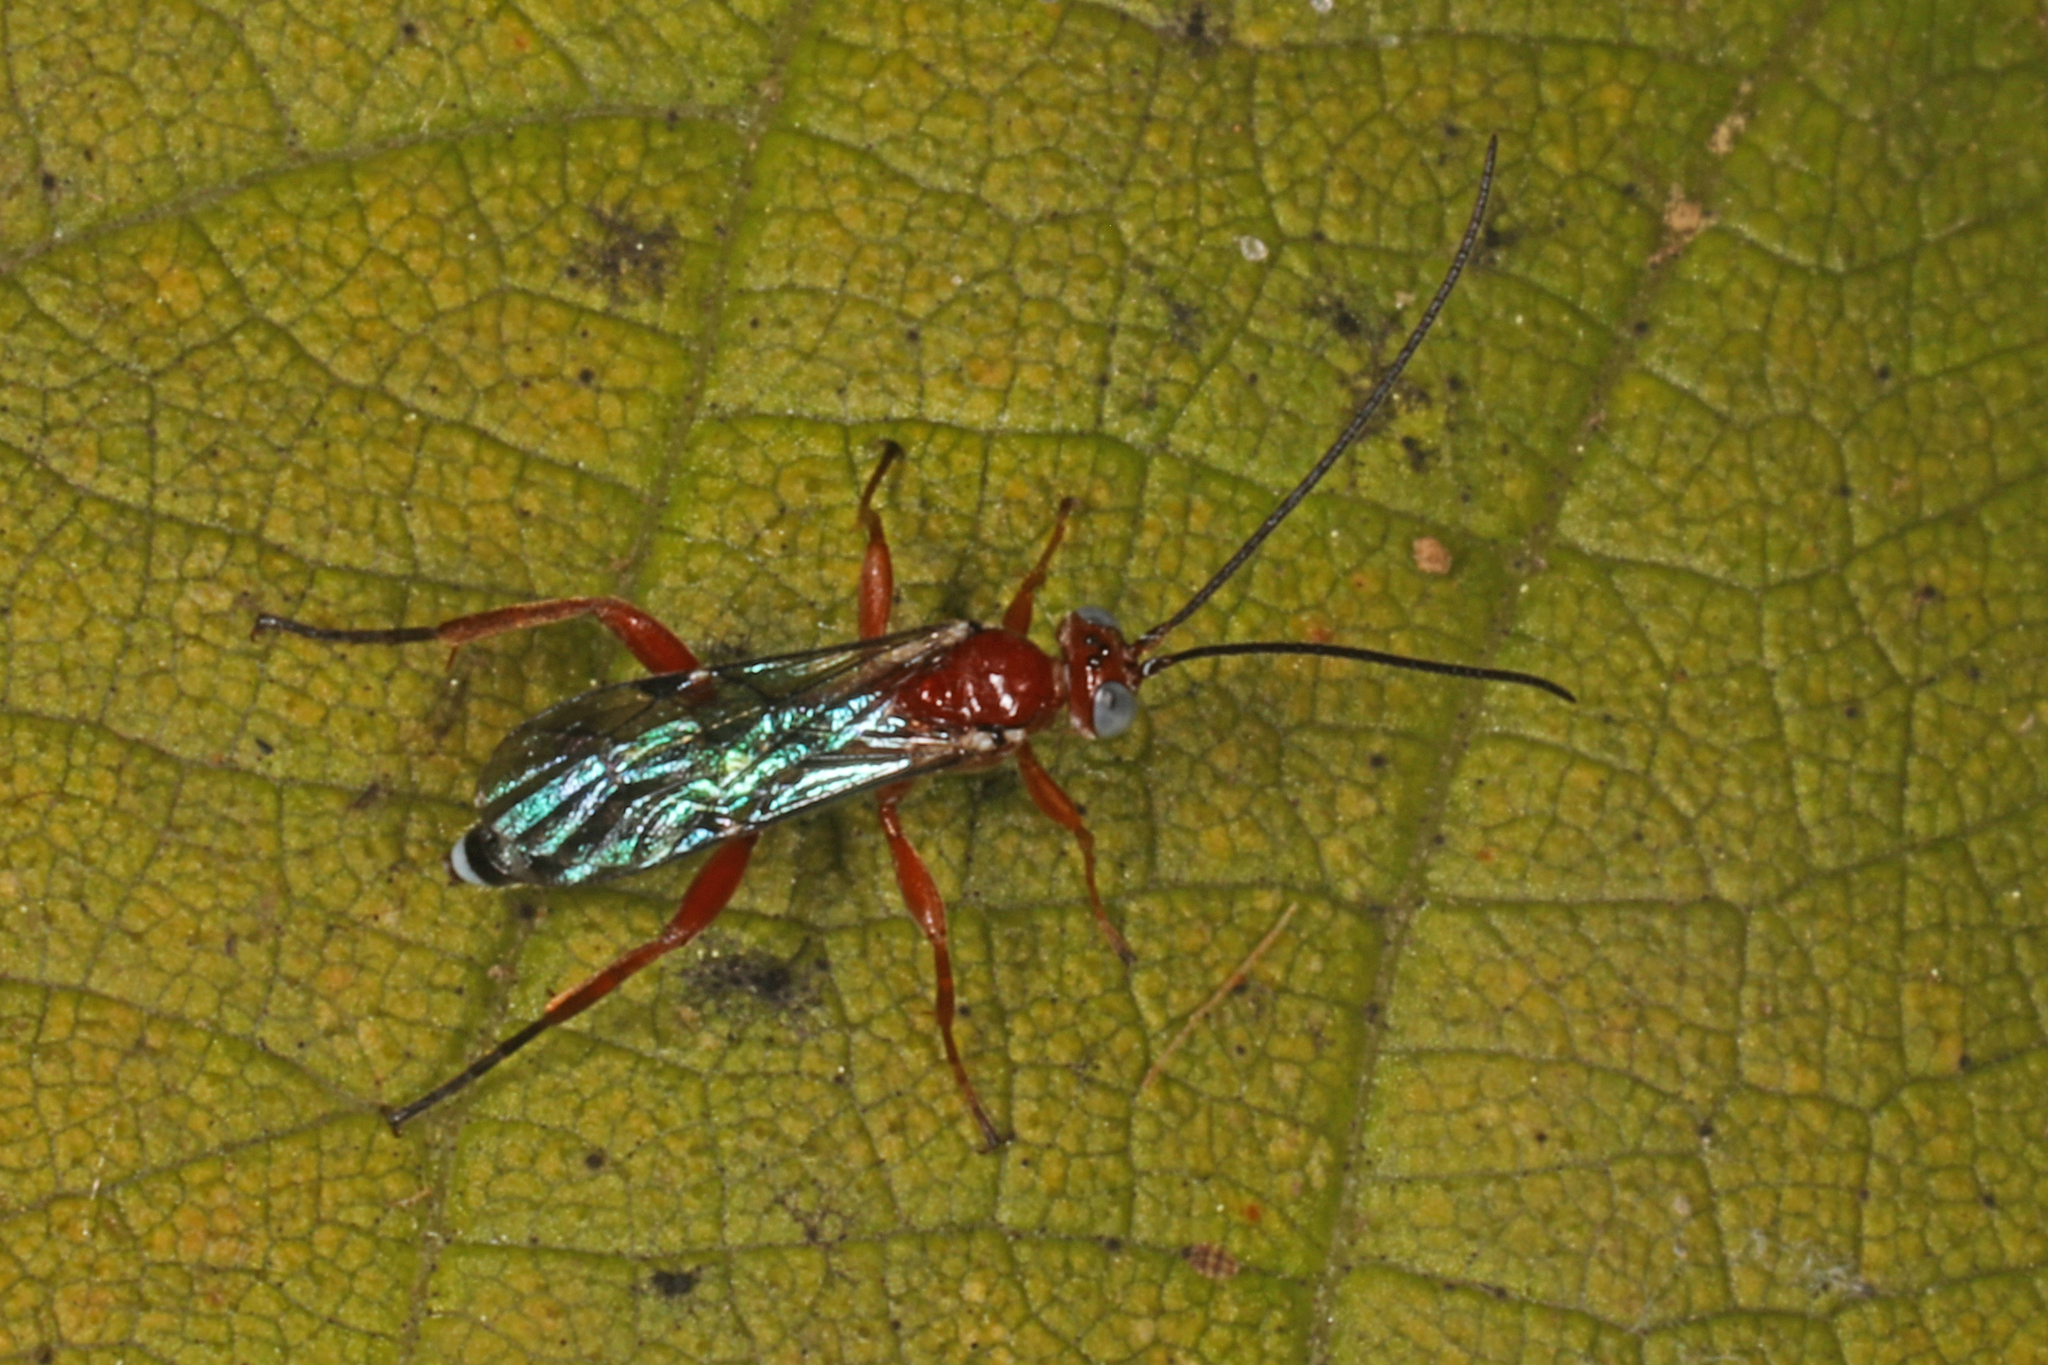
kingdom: Animalia
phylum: Arthropoda
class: Insecta
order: Hymenoptera
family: Ichneumonidae
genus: Pimpla
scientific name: Pimpla marginella
